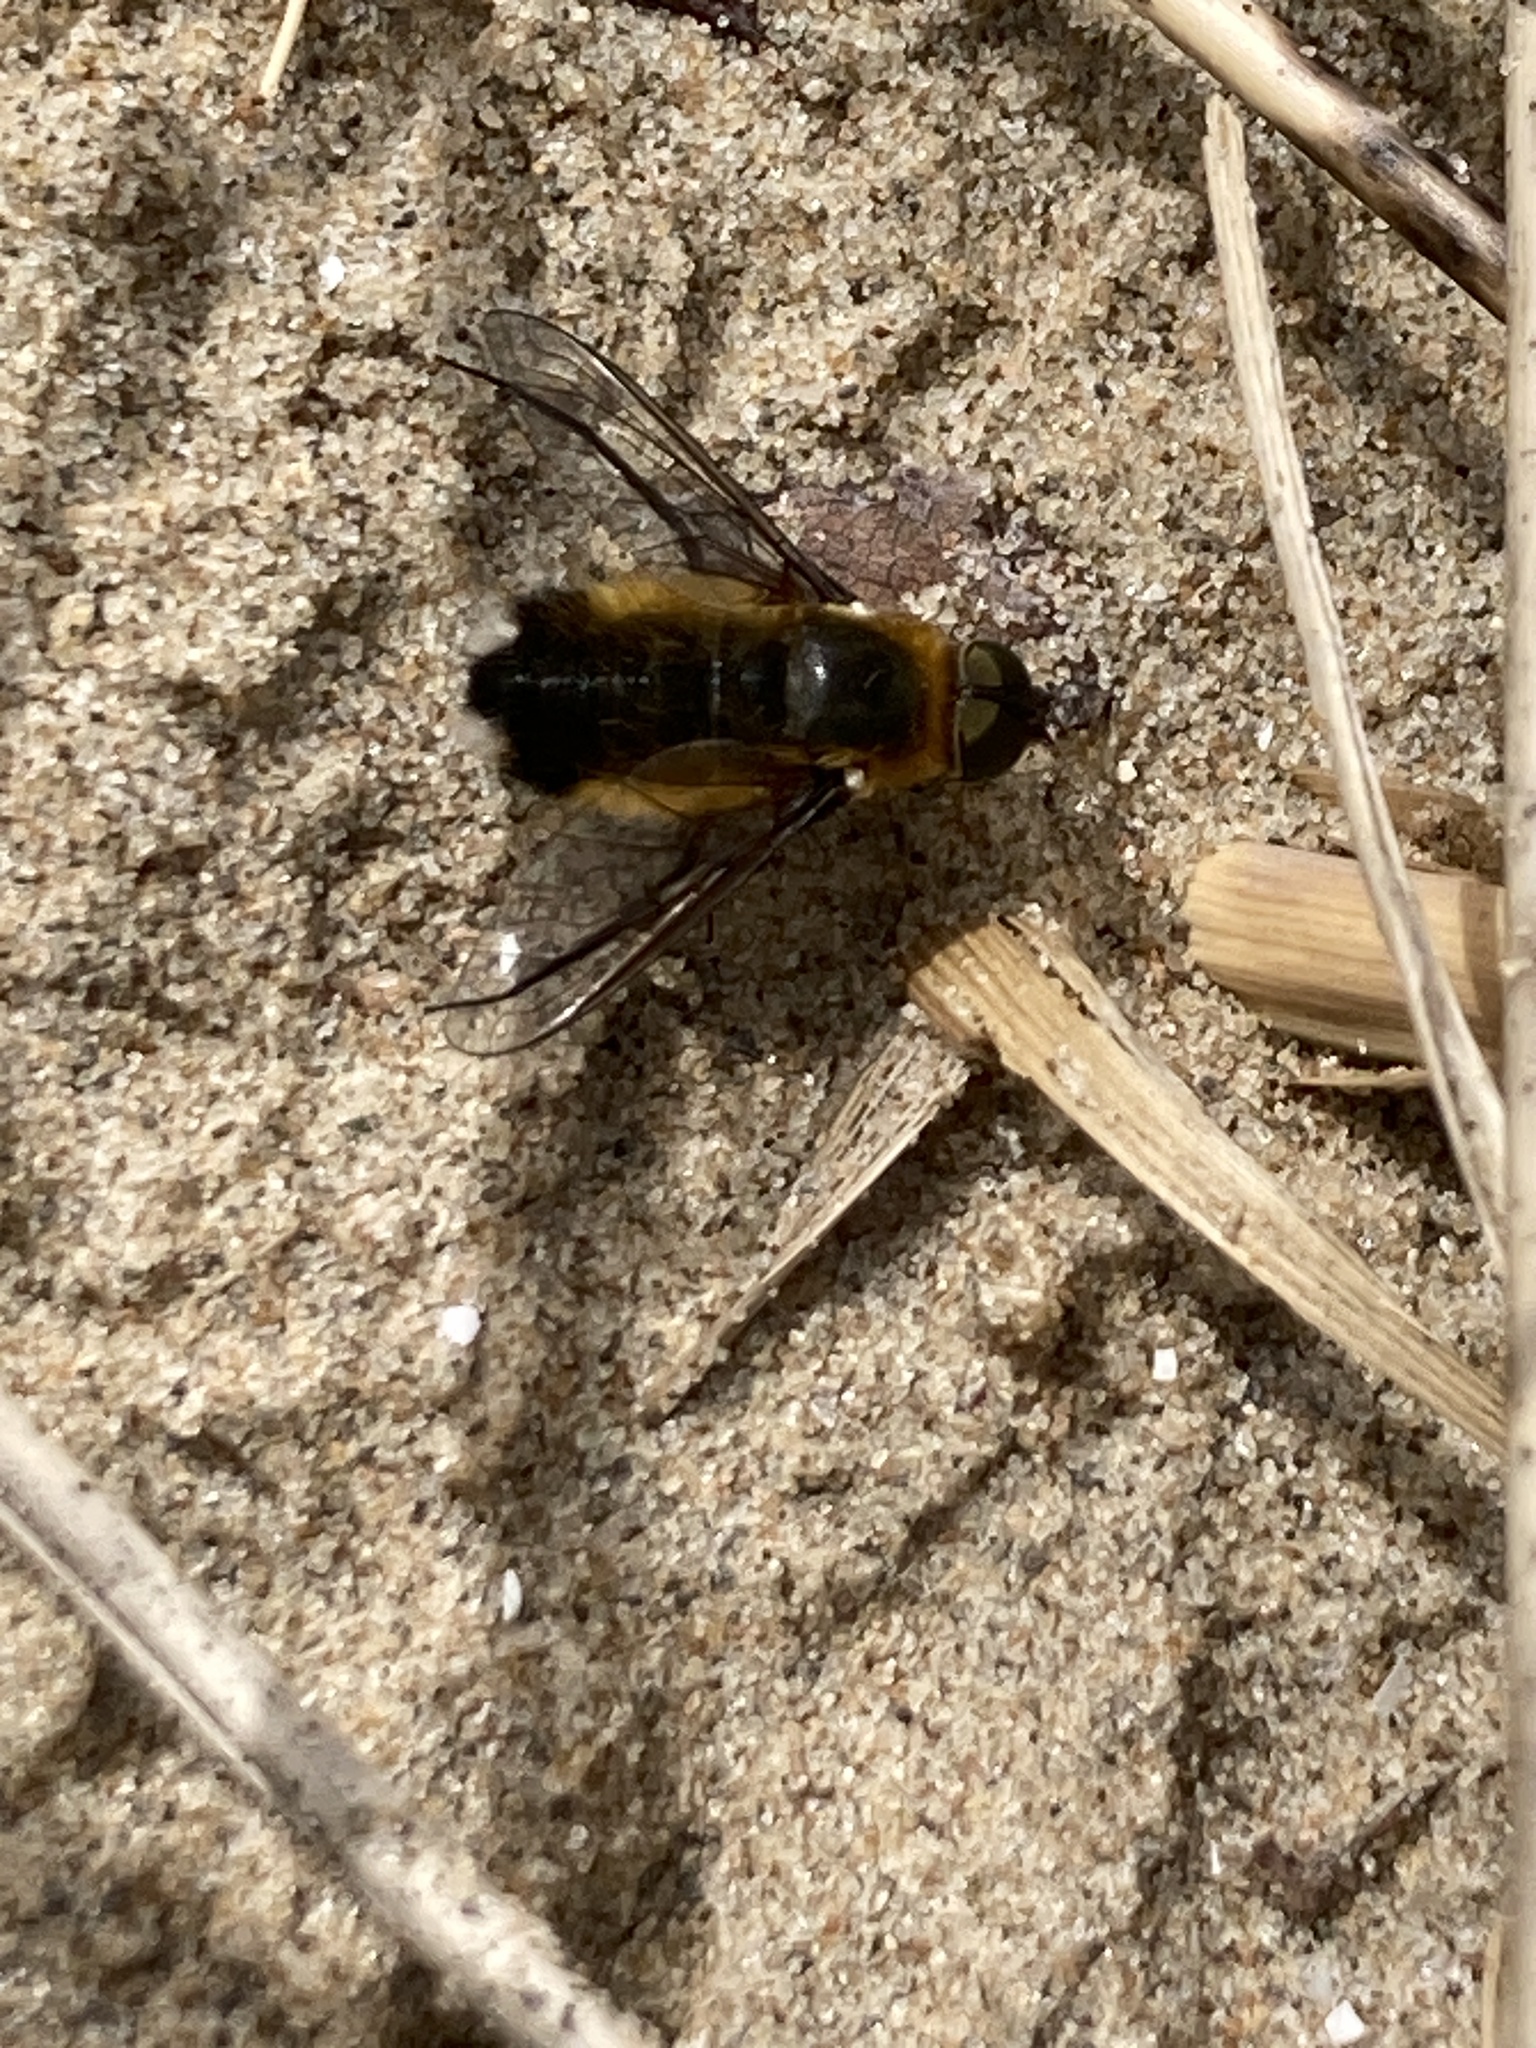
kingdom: Animalia
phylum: Arthropoda
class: Insecta
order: Diptera
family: Bombyliidae
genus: Villa
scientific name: Villa modesta
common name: Dune villa
